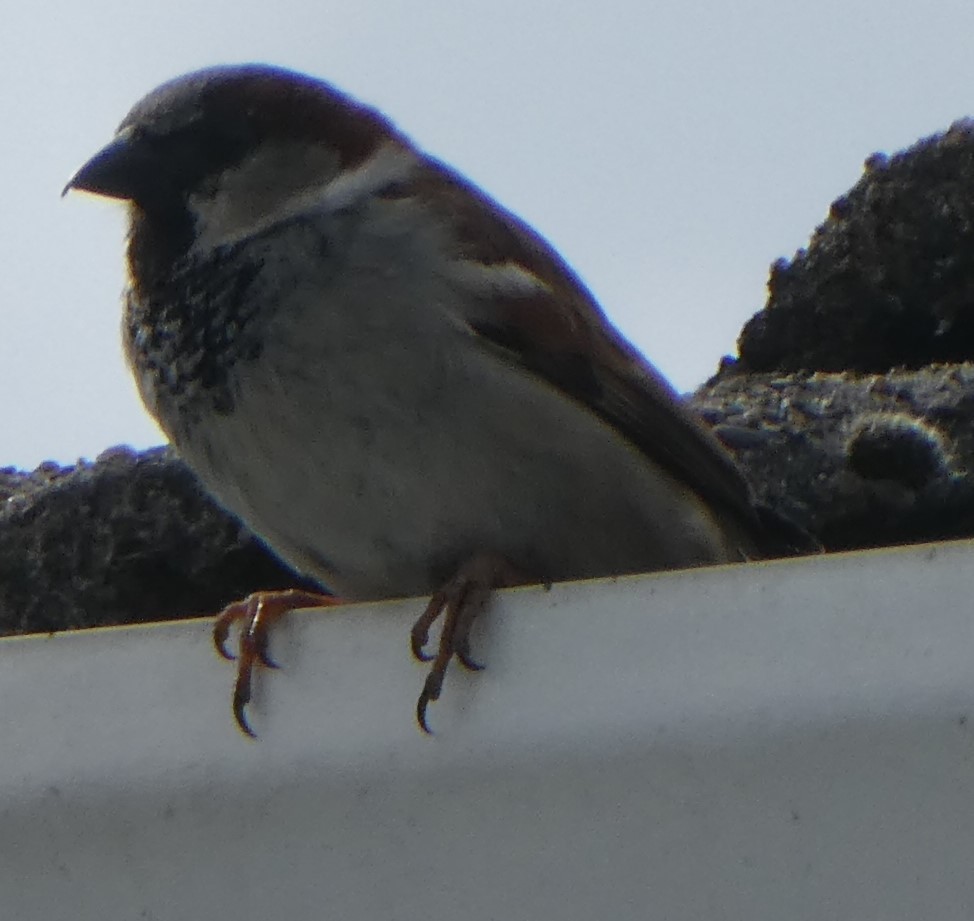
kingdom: Animalia
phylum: Chordata
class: Aves
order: Passeriformes
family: Passeridae
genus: Passer
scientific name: Passer domesticus
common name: House sparrow
